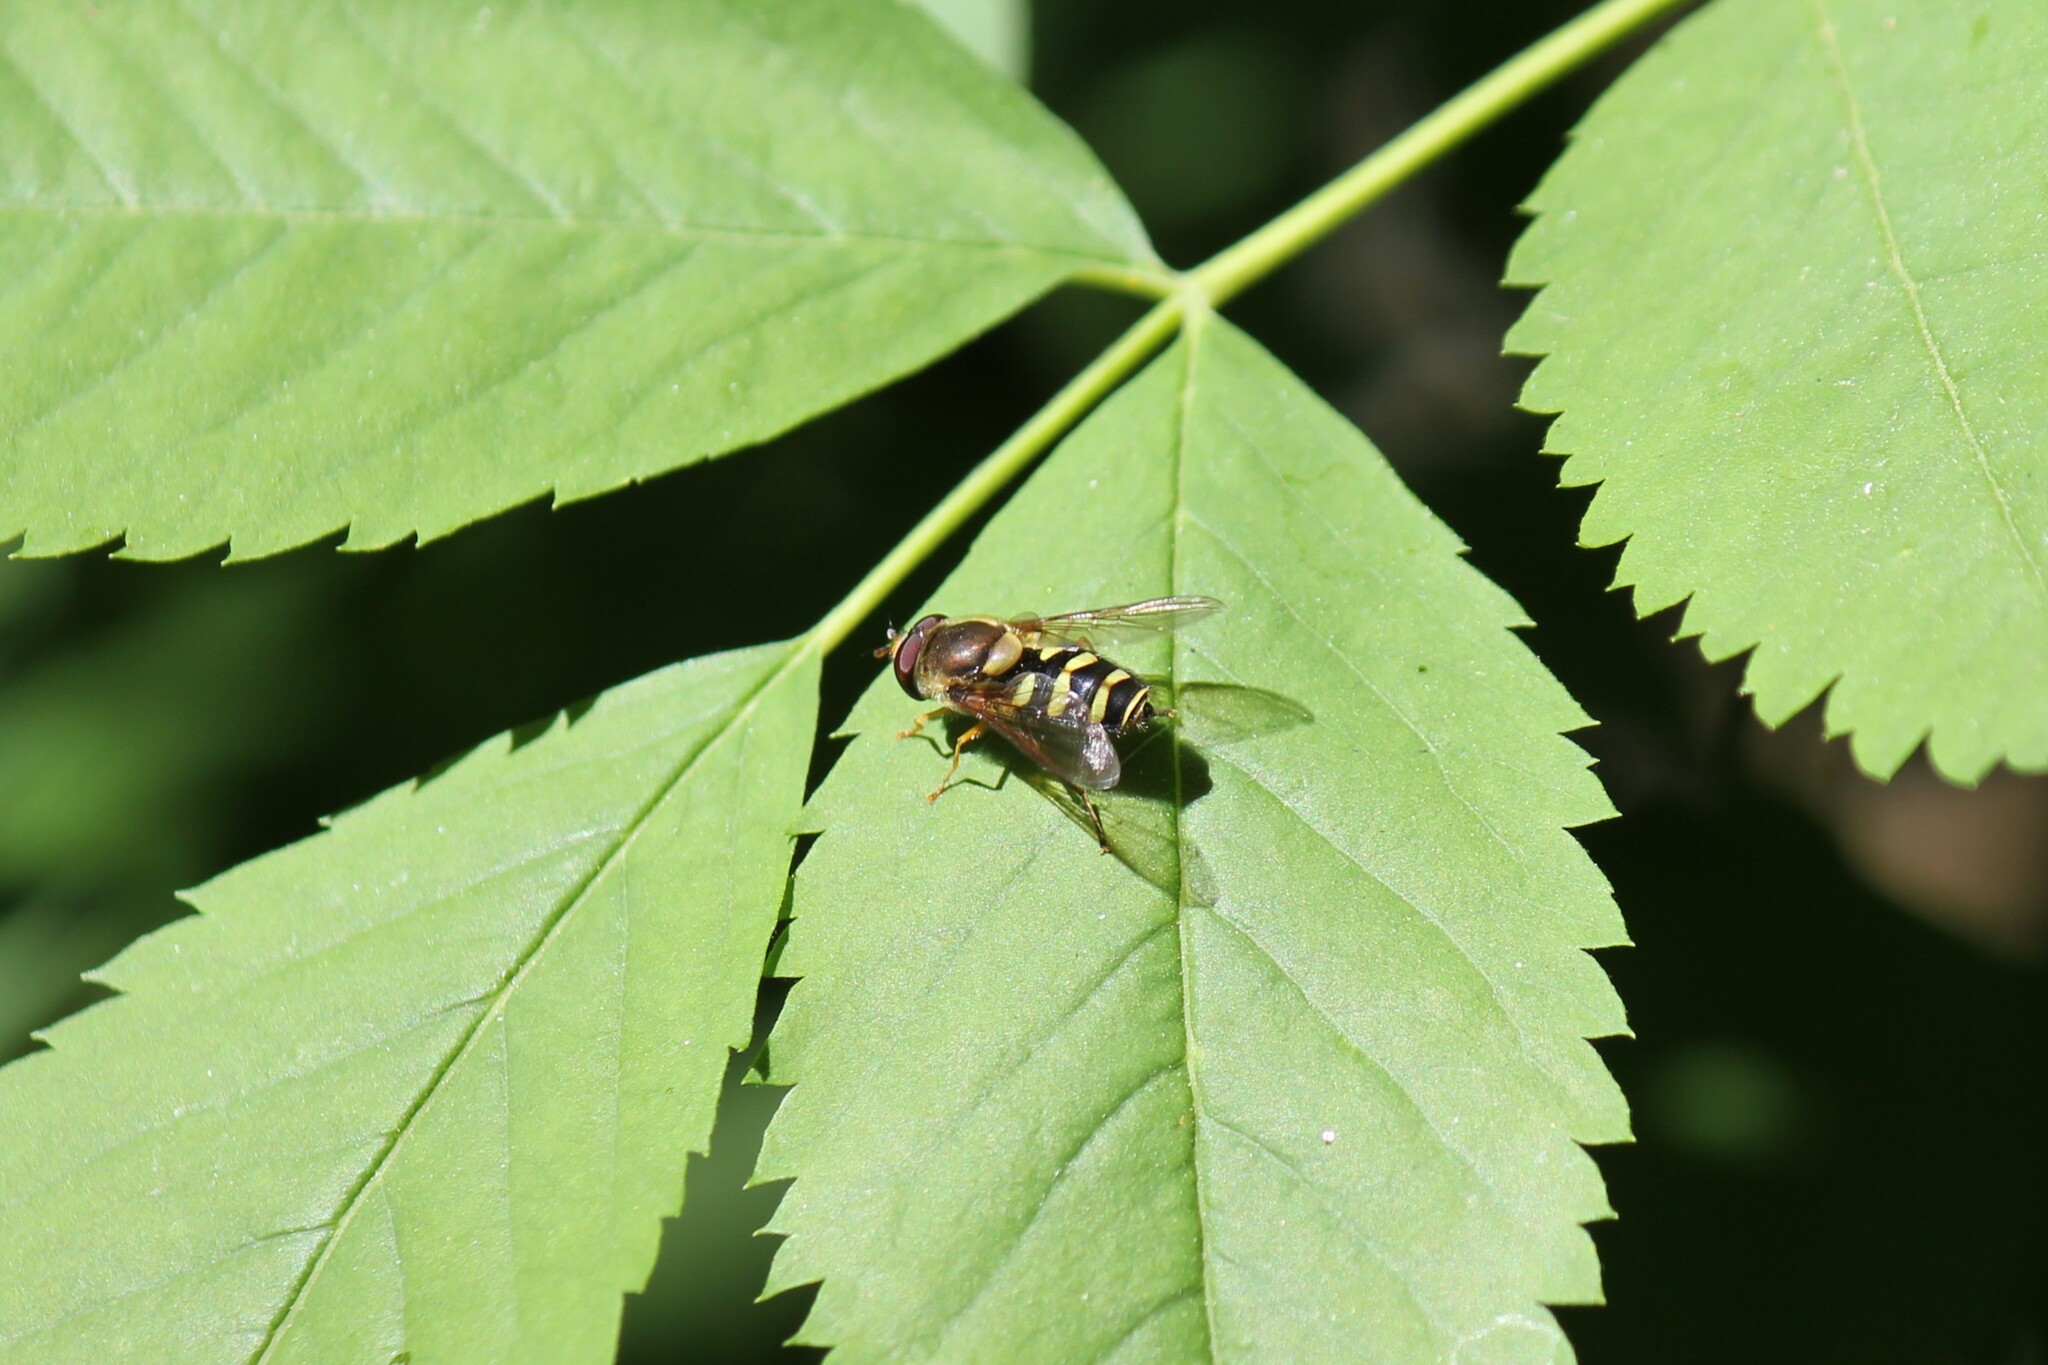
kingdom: Animalia
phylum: Arthropoda
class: Insecta
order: Diptera
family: Syrphidae
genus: Syrphus
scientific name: Syrphus opinator
